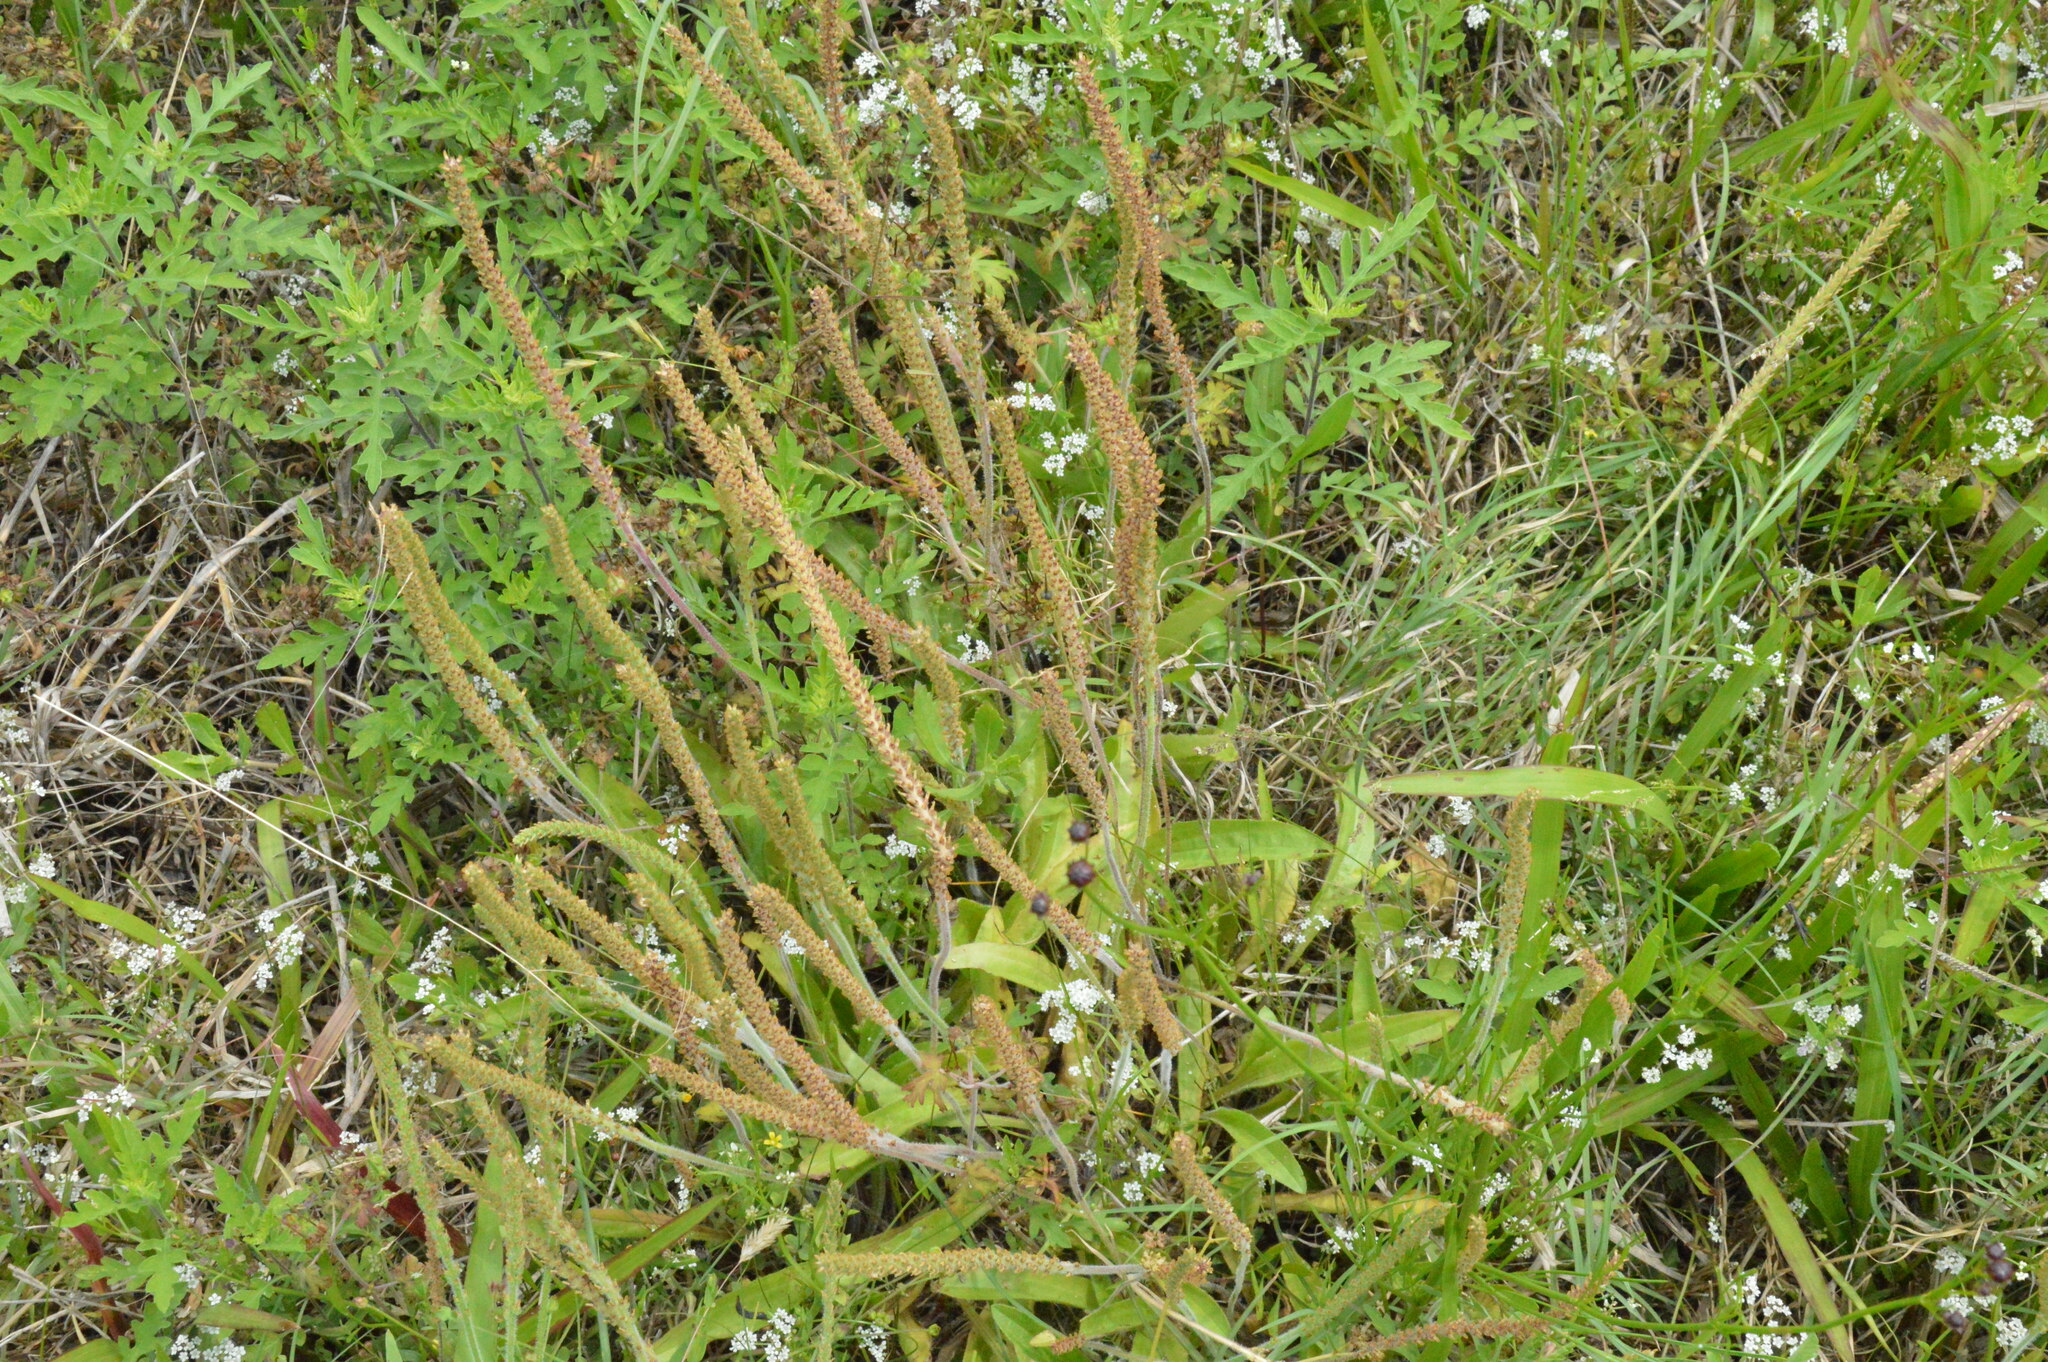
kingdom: Plantae
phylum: Tracheophyta
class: Magnoliopsida
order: Lamiales
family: Plantaginaceae
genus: Plantago
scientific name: Plantago virginica
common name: Hoary plantain
